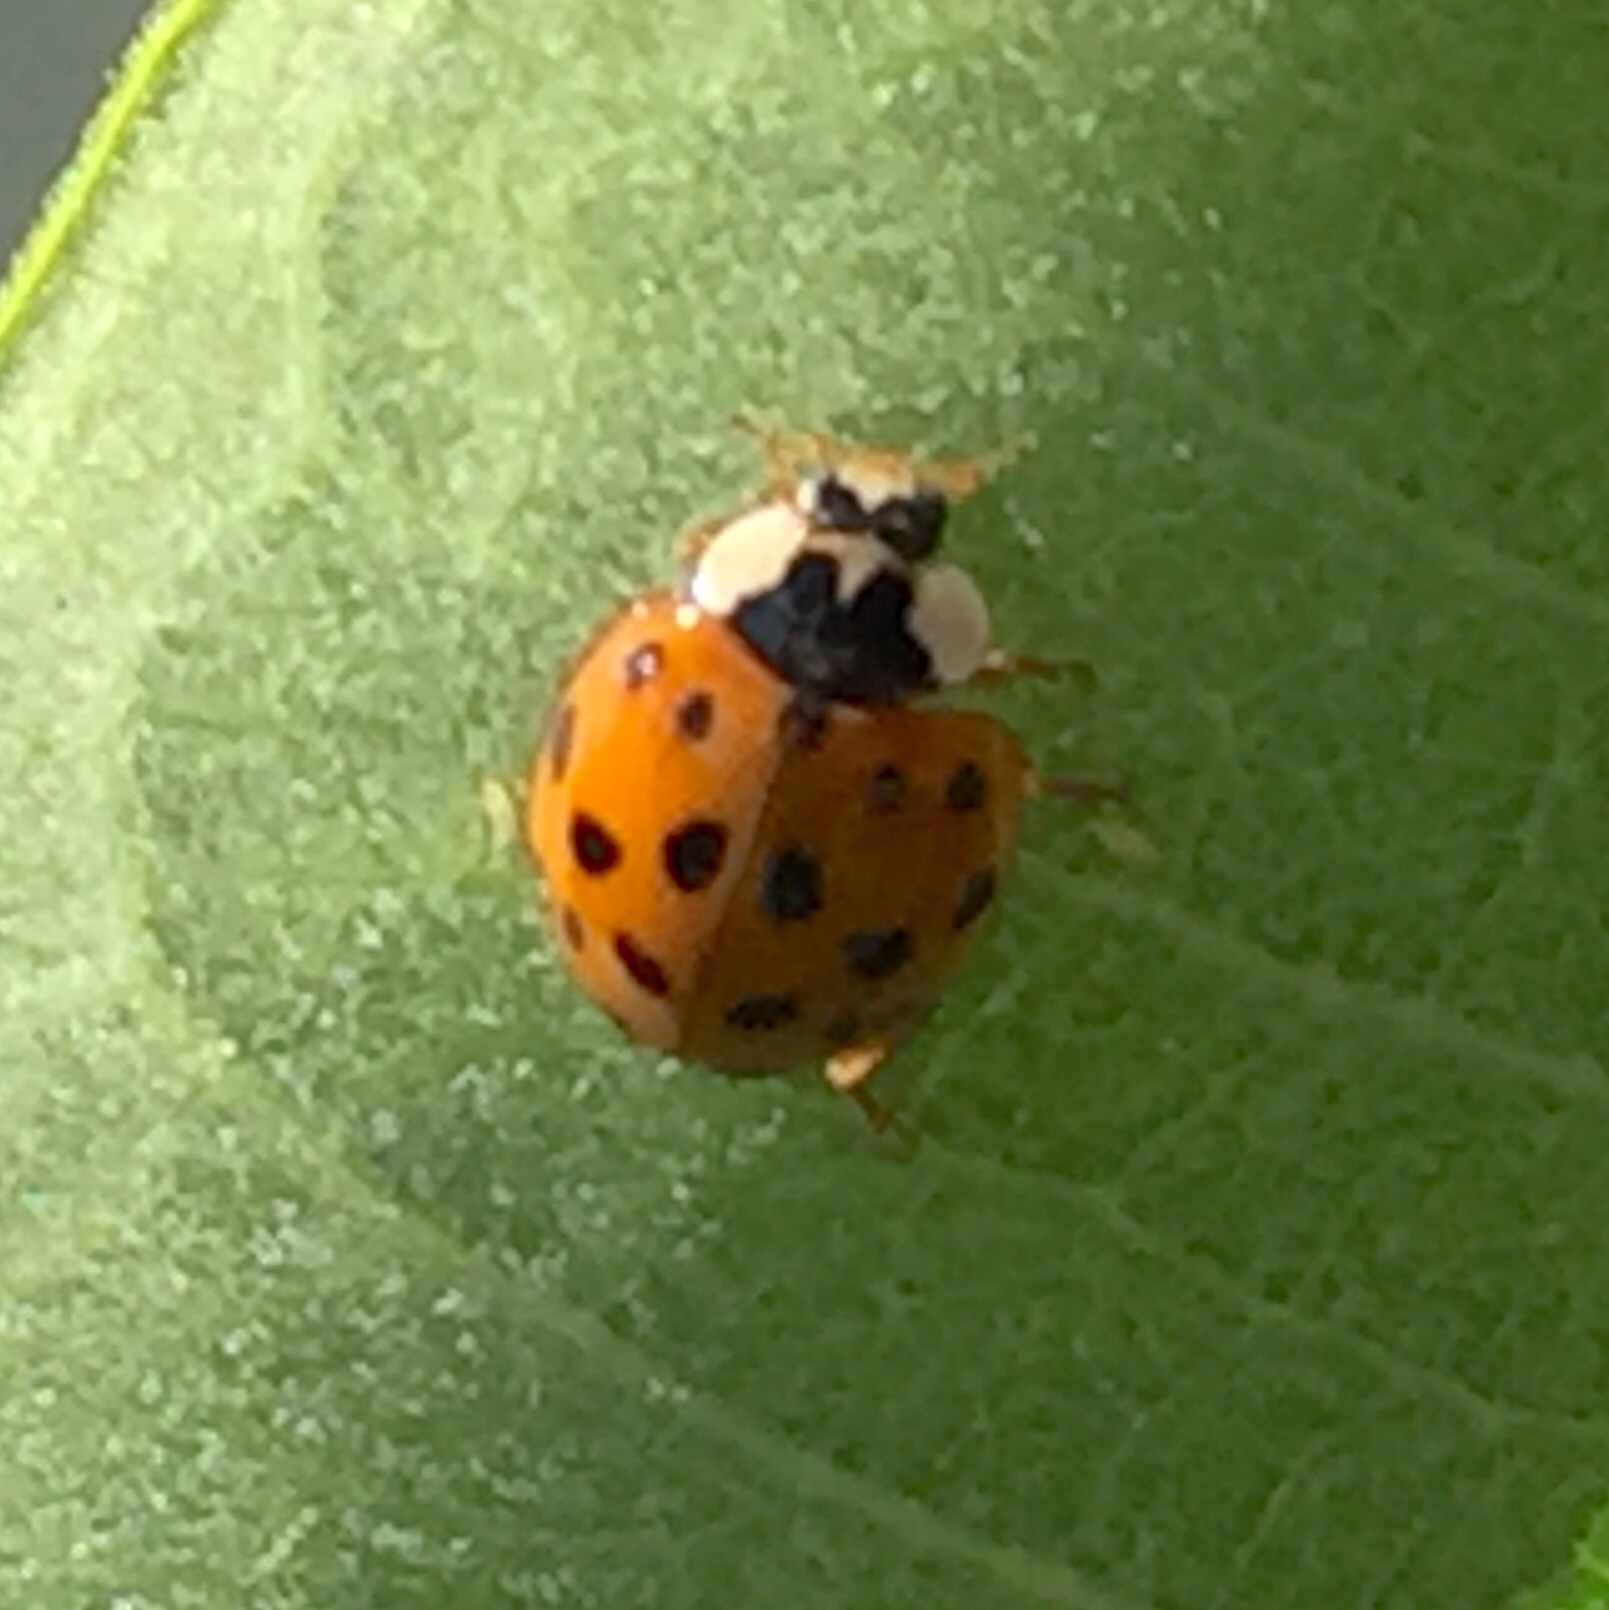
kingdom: Animalia
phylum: Arthropoda
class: Insecta
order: Coleoptera
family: Coccinellidae
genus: Harmonia
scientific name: Harmonia axyridis
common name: Harlequin ladybird
